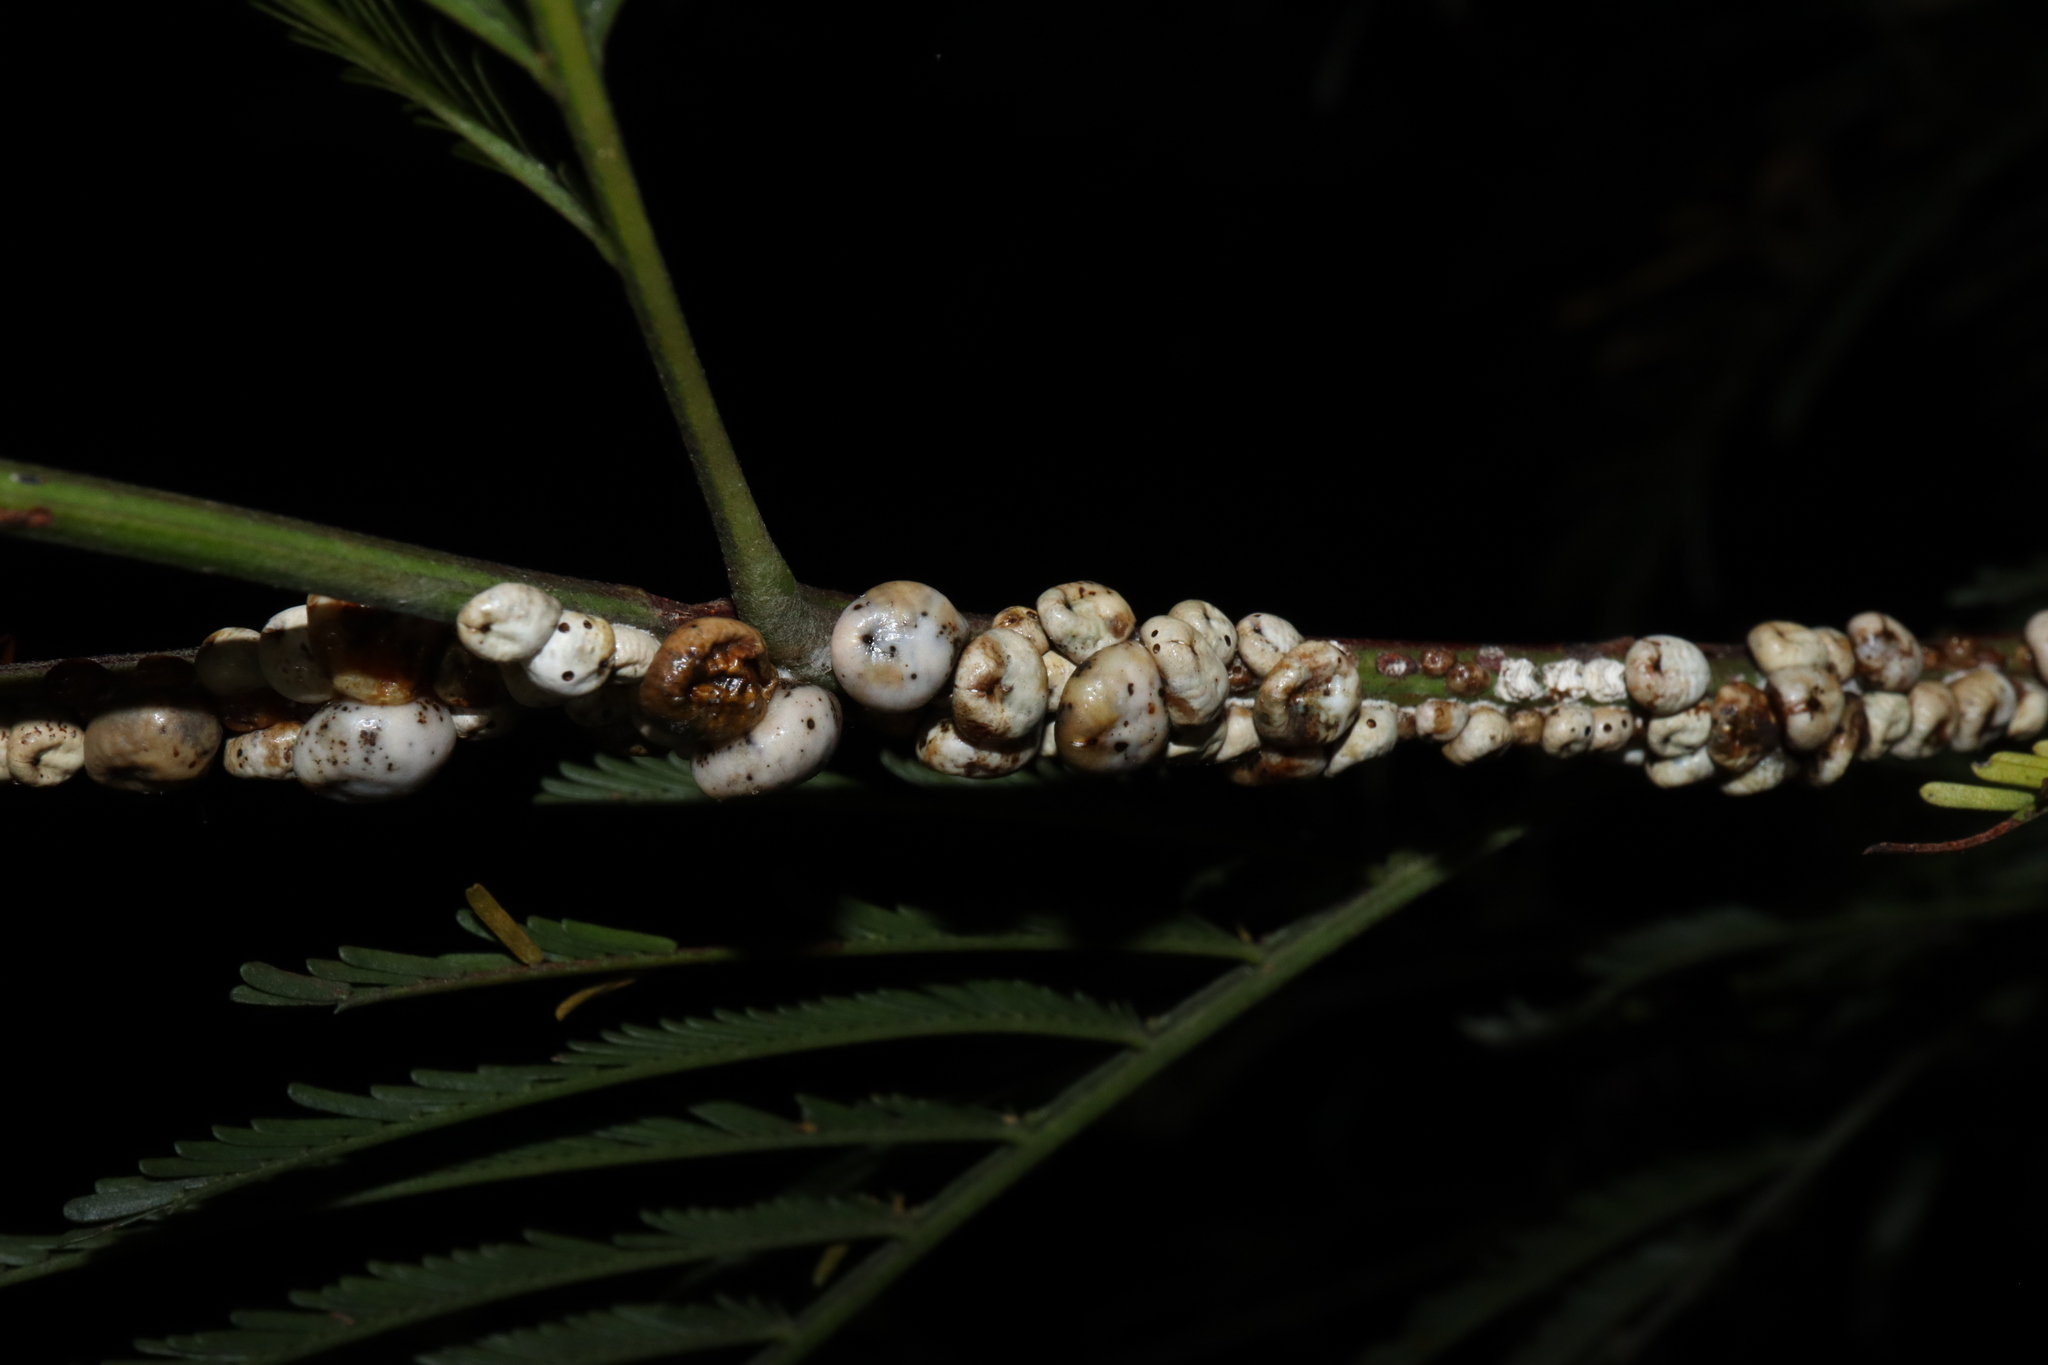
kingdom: Animalia
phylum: Arthropoda
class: Insecta
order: Hemiptera
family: Coccidae
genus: Cryptes
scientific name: Cryptes baccatus
